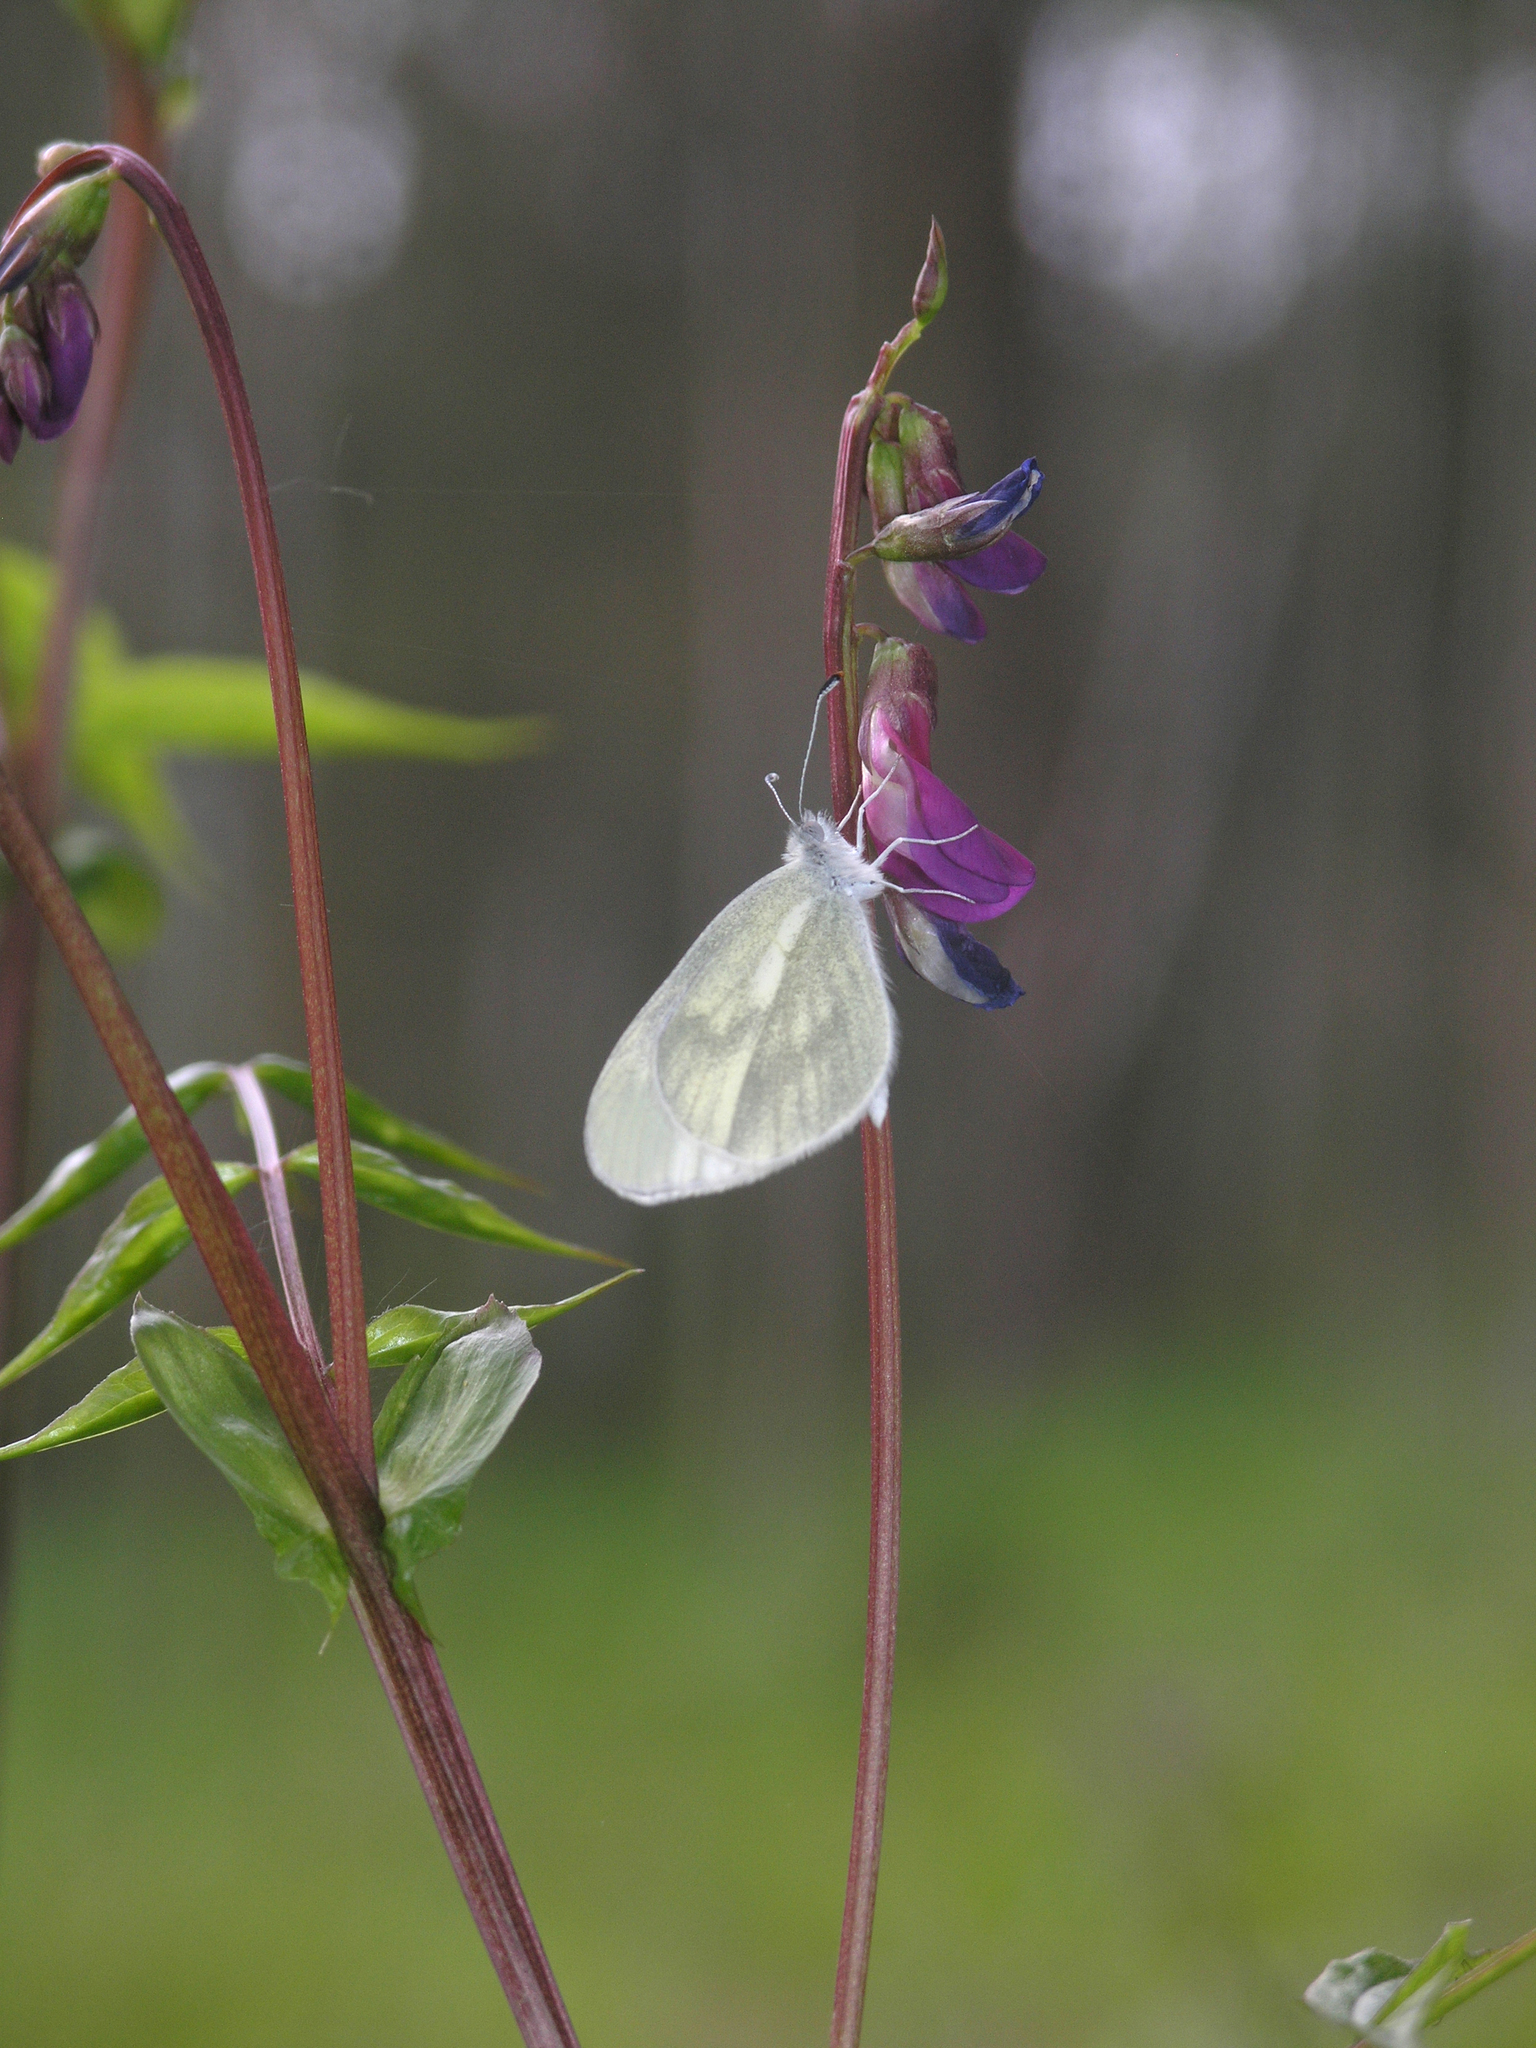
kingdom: Plantae
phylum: Tracheophyta
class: Magnoliopsida
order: Fabales
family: Fabaceae
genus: Lathyrus
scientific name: Lathyrus vernus
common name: Spring pea
